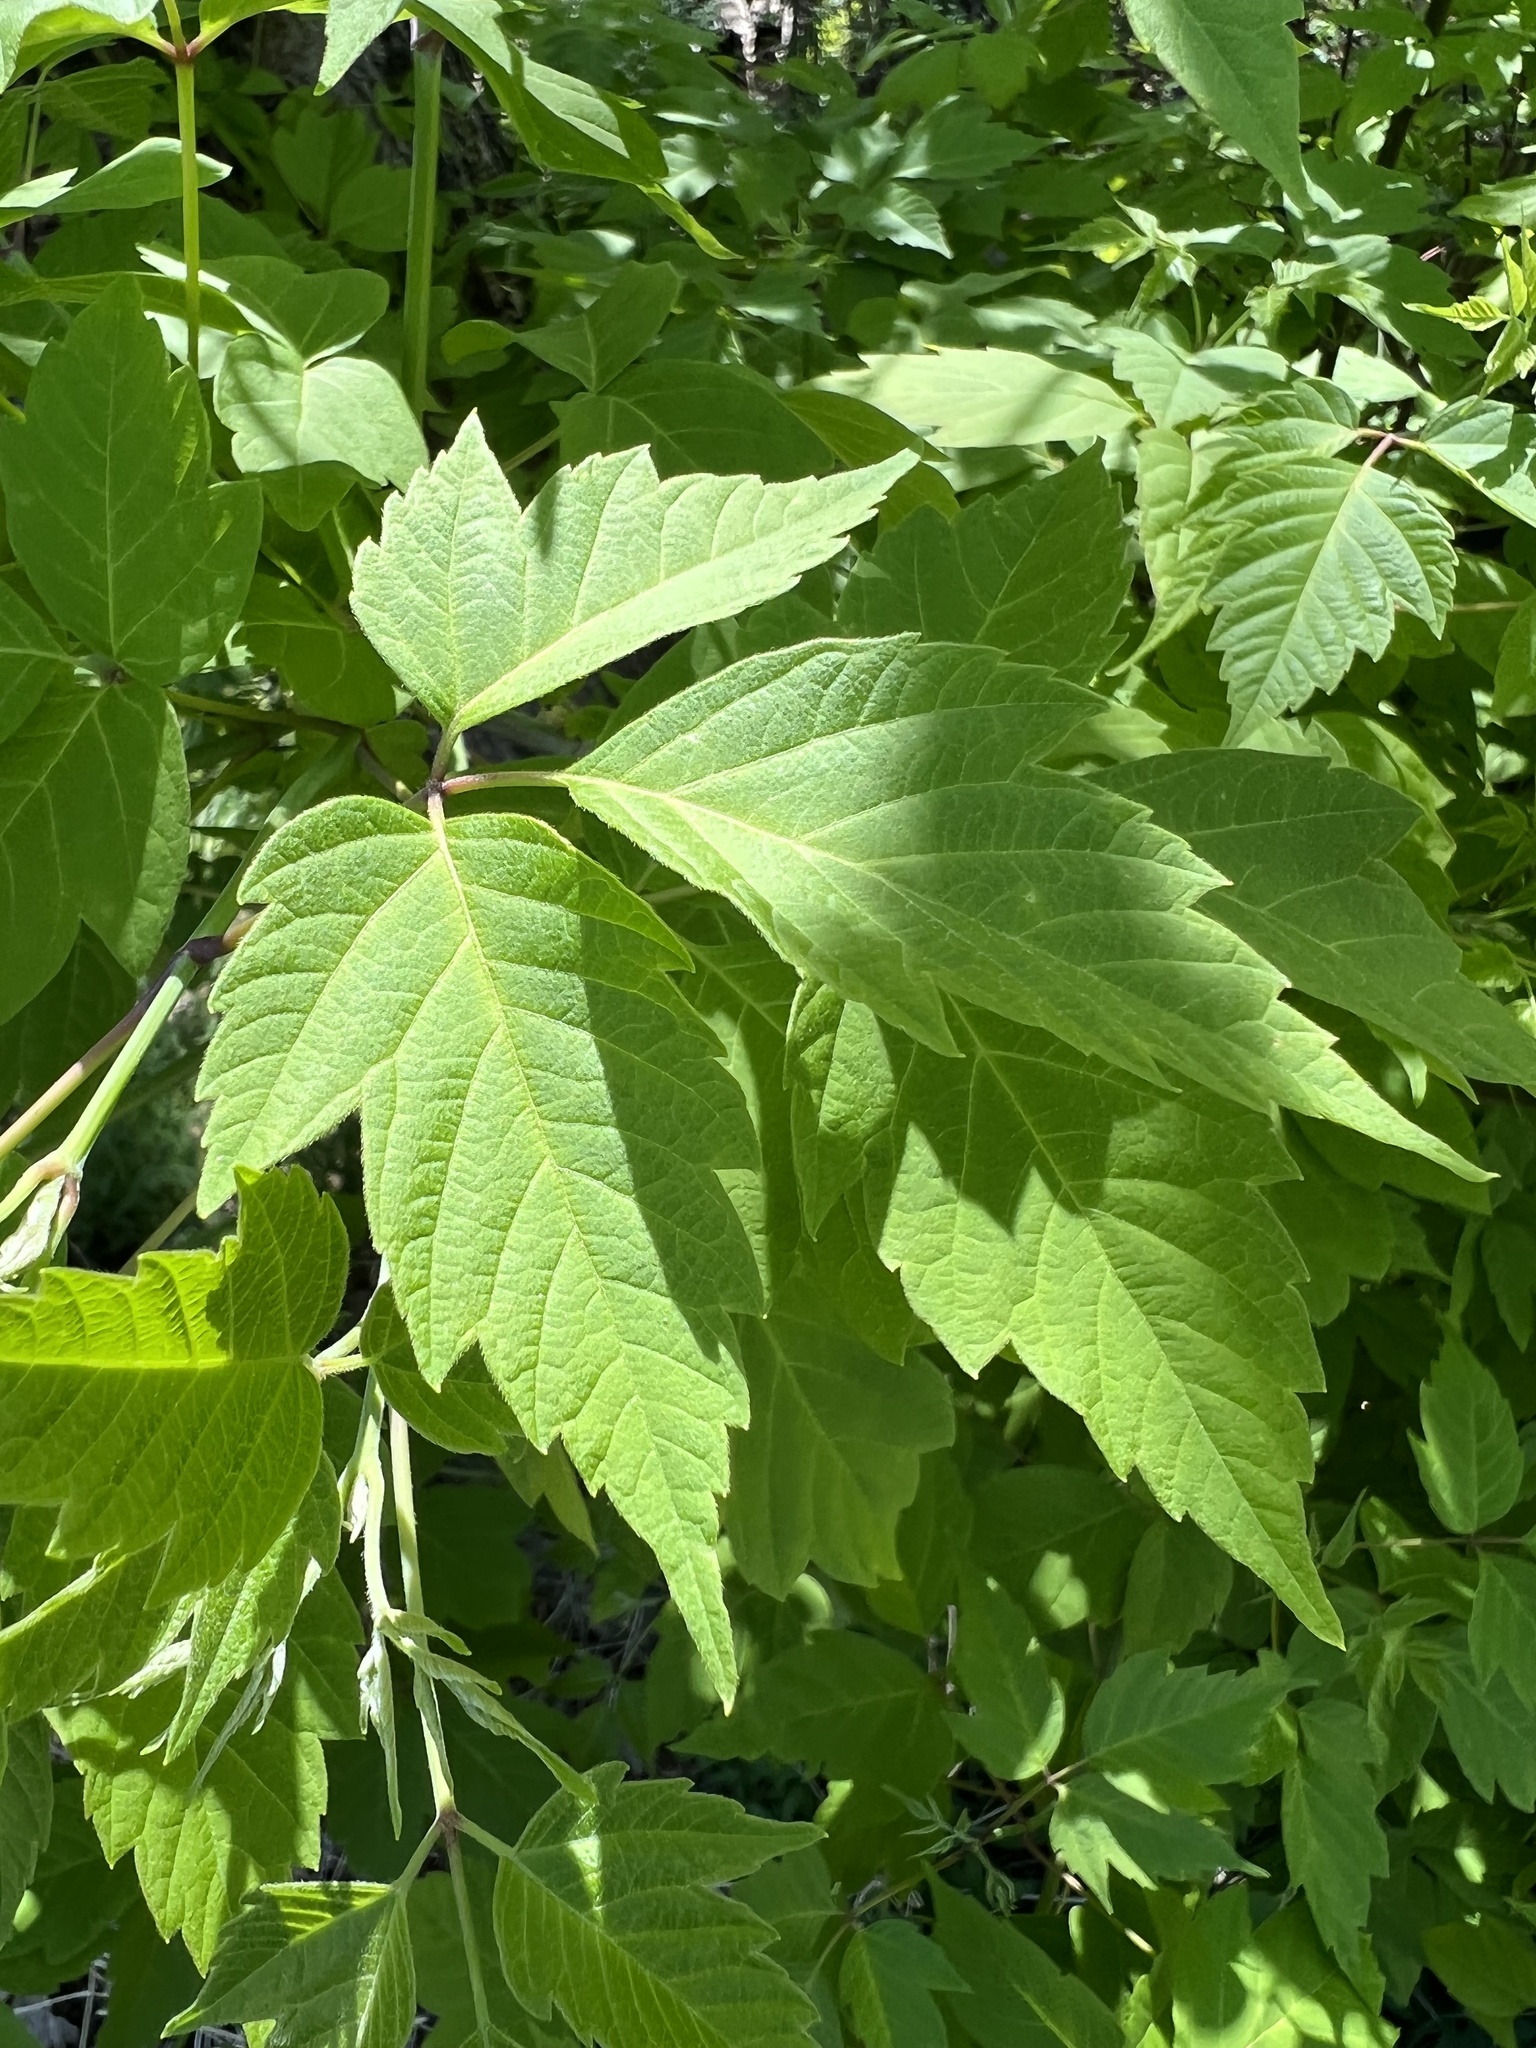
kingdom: Plantae
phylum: Tracheophyta
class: Magnoliopsida
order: Sapindales
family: Sapindaceae
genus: Acer
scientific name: Acer negundo
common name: Ashleaf maple
